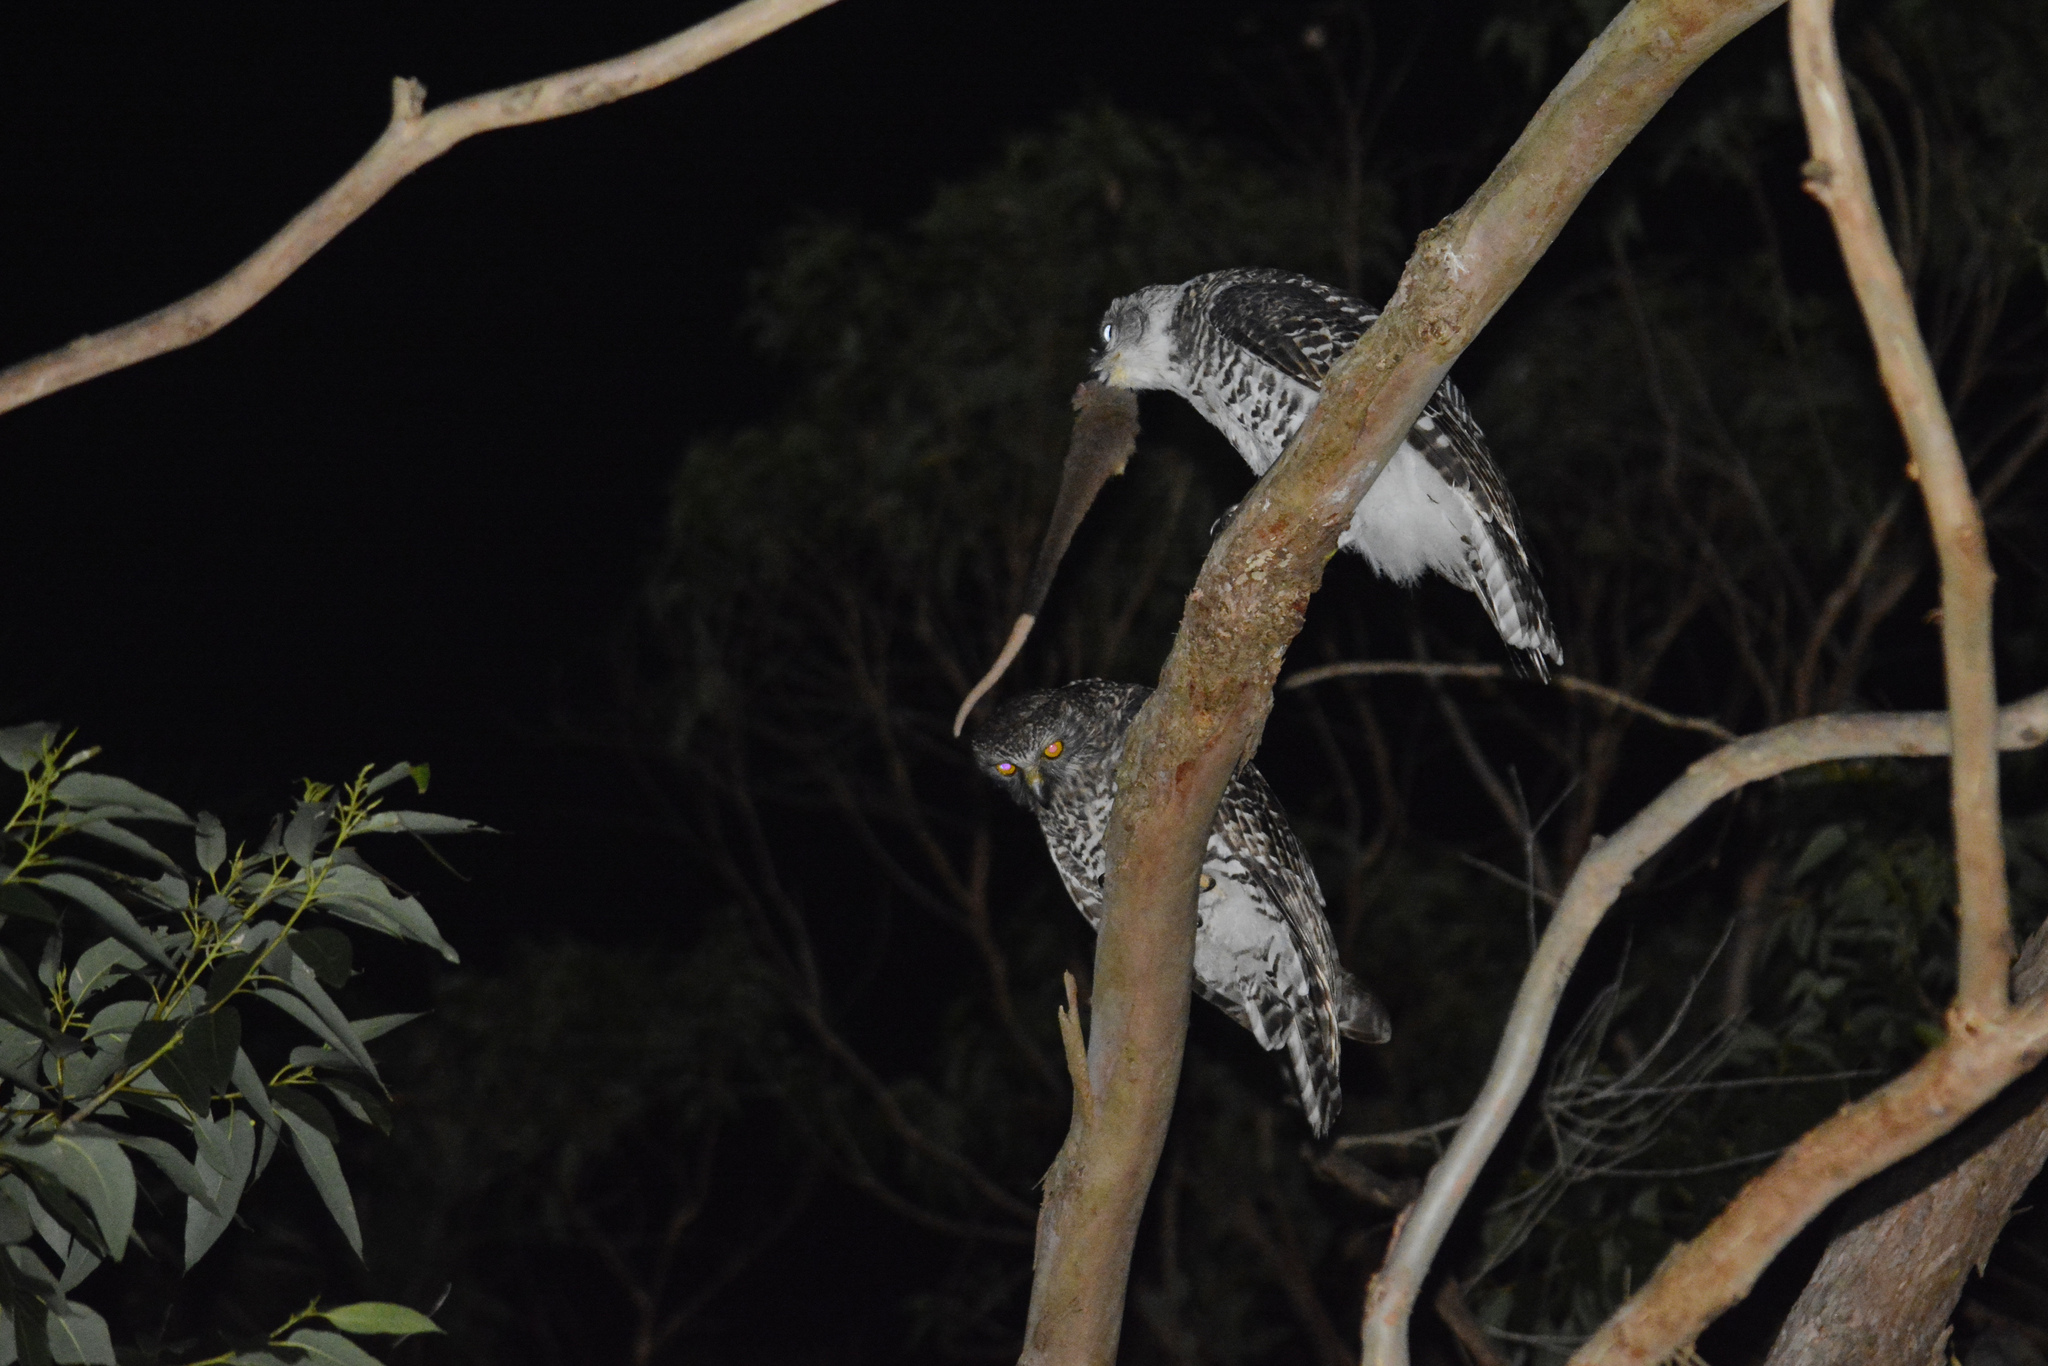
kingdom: Animalia
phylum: Chordata
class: Mammalia
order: Diprotodontia
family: Pseudocheiridae
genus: Pseudocheirus
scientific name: Pseudocheirus peregrinus
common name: Common ringtail possum
